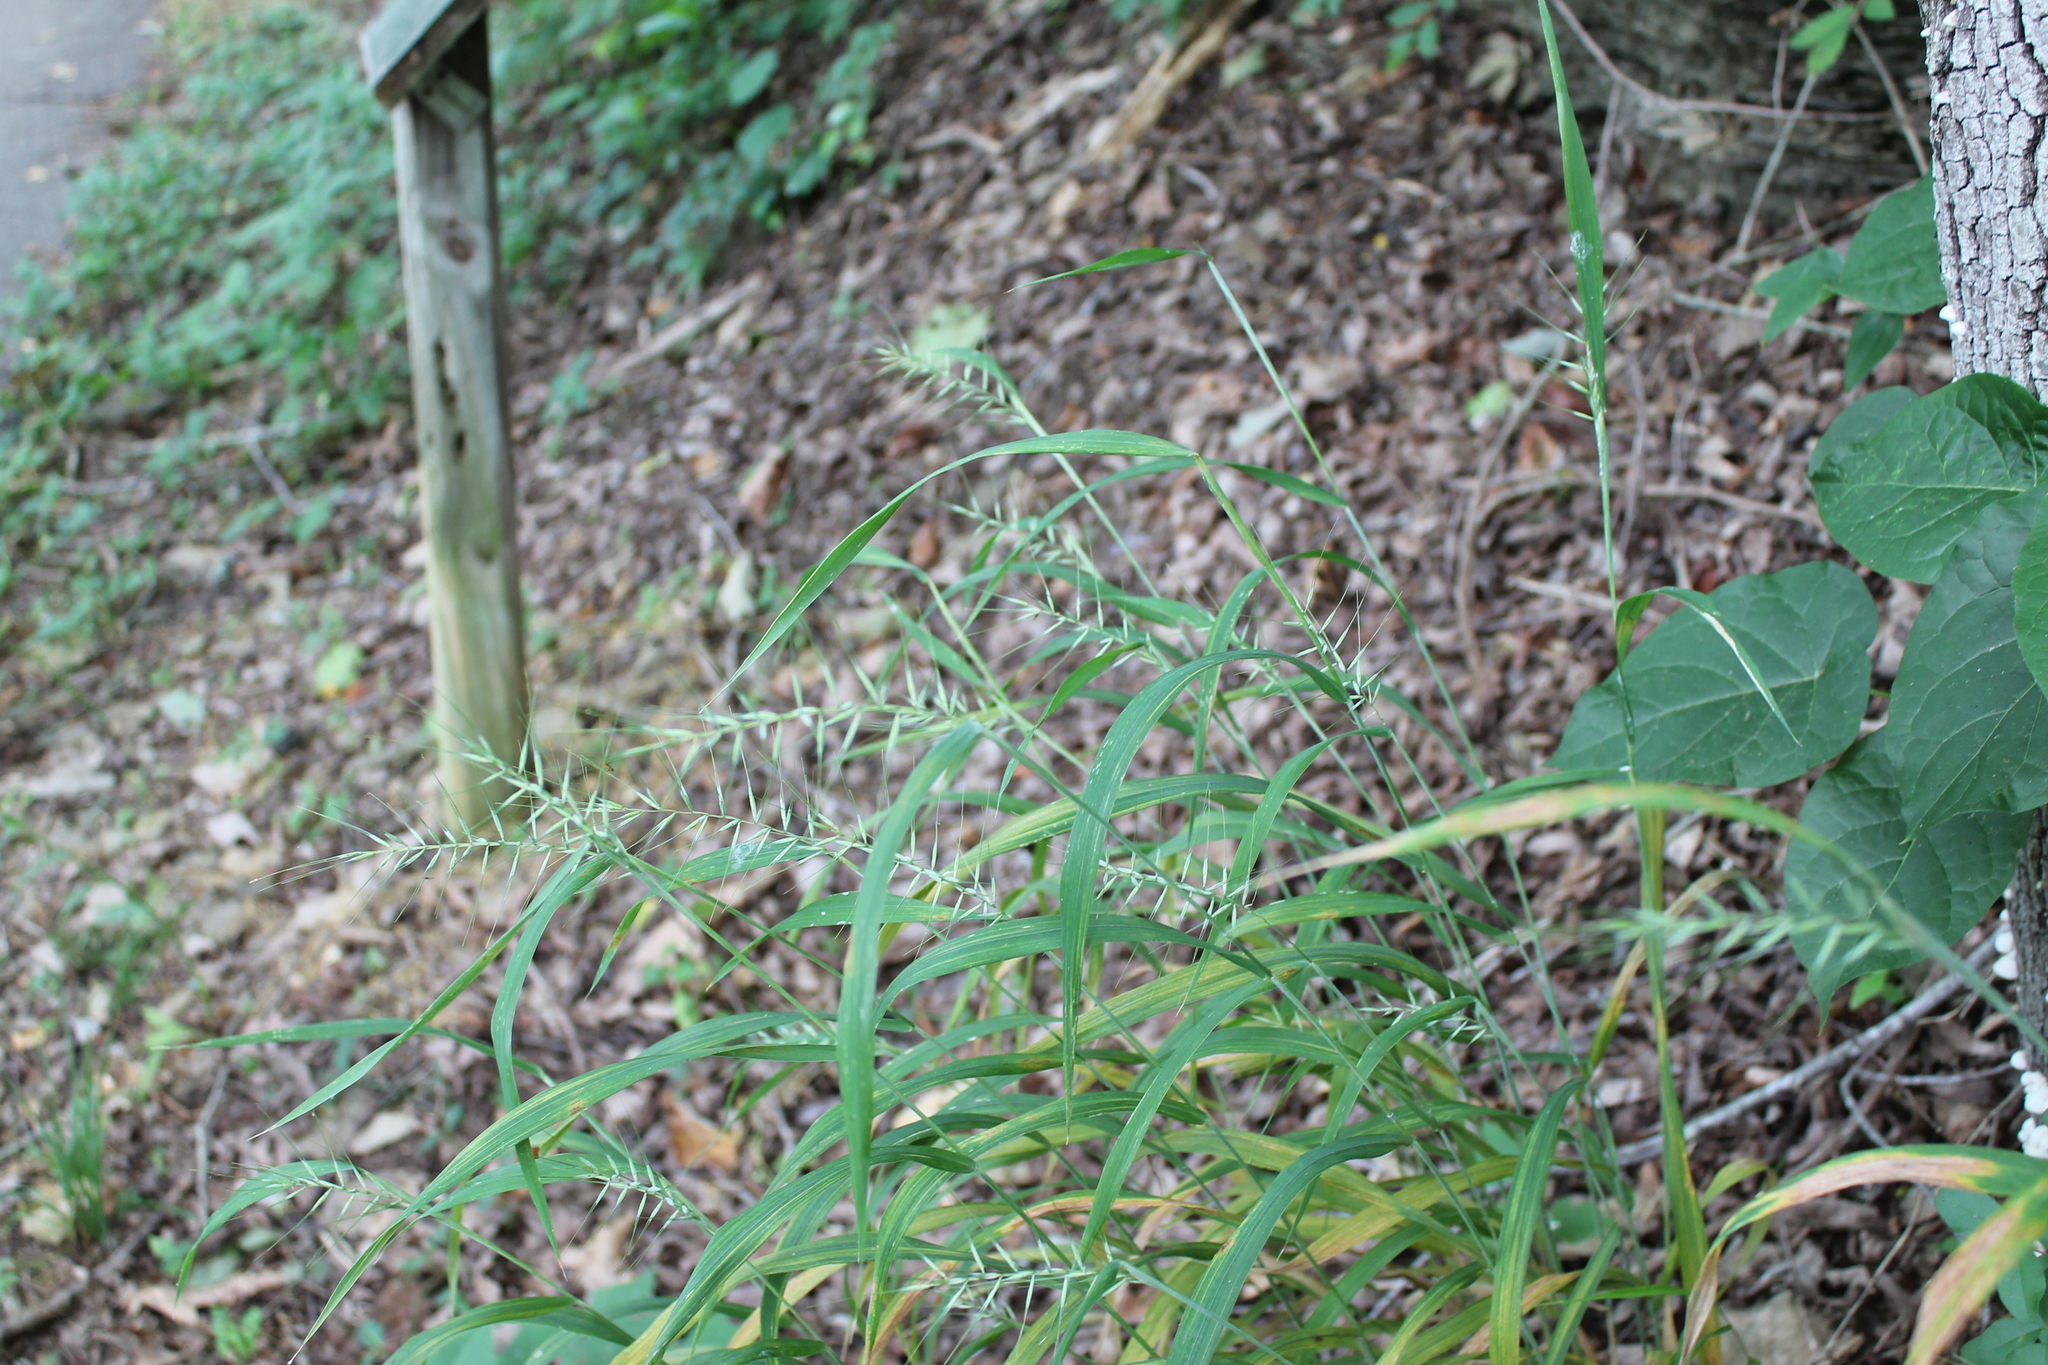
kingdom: Plantae
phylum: Tracheophyta
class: Liliopsida
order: Poales
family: Poaceae
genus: Elymus
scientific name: Elymus hystrix
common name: Bottlebrush grass
